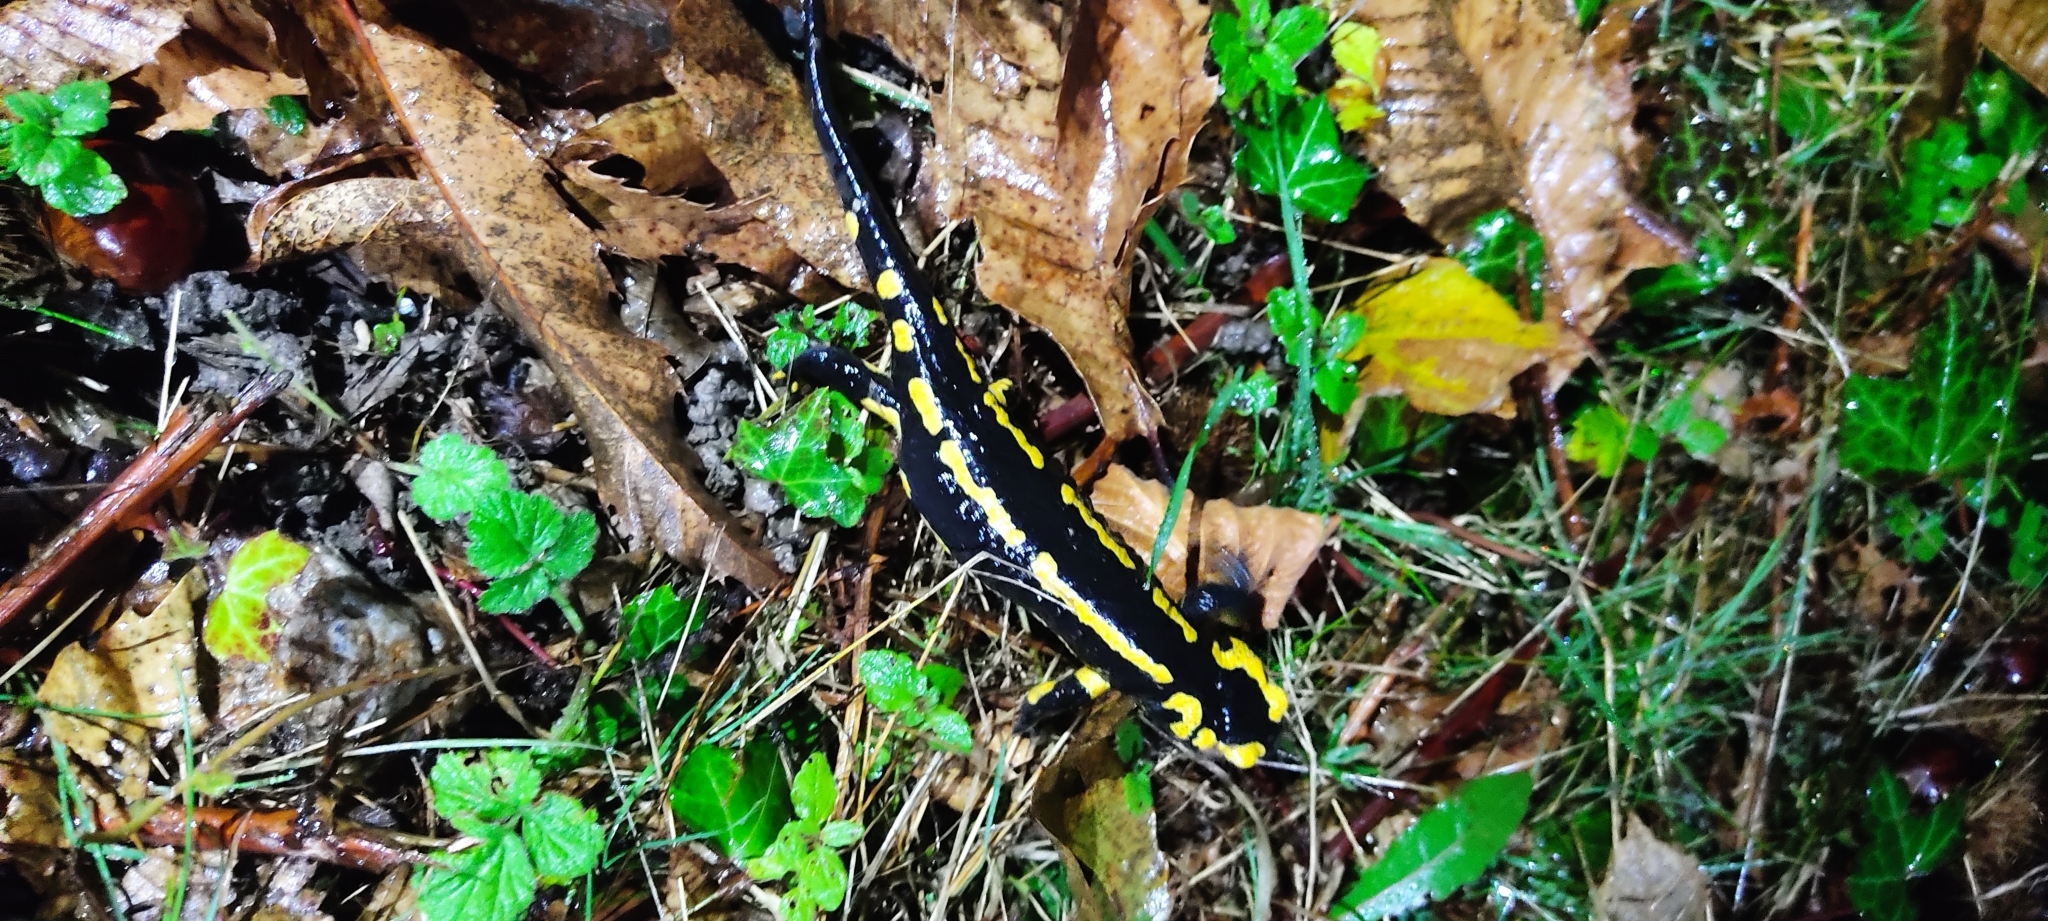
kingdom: Animalia
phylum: Chordata
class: Amphibia
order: Caudata
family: Salamandridae
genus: Salamandra
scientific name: Salamandra salamandra
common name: Fire salamander
